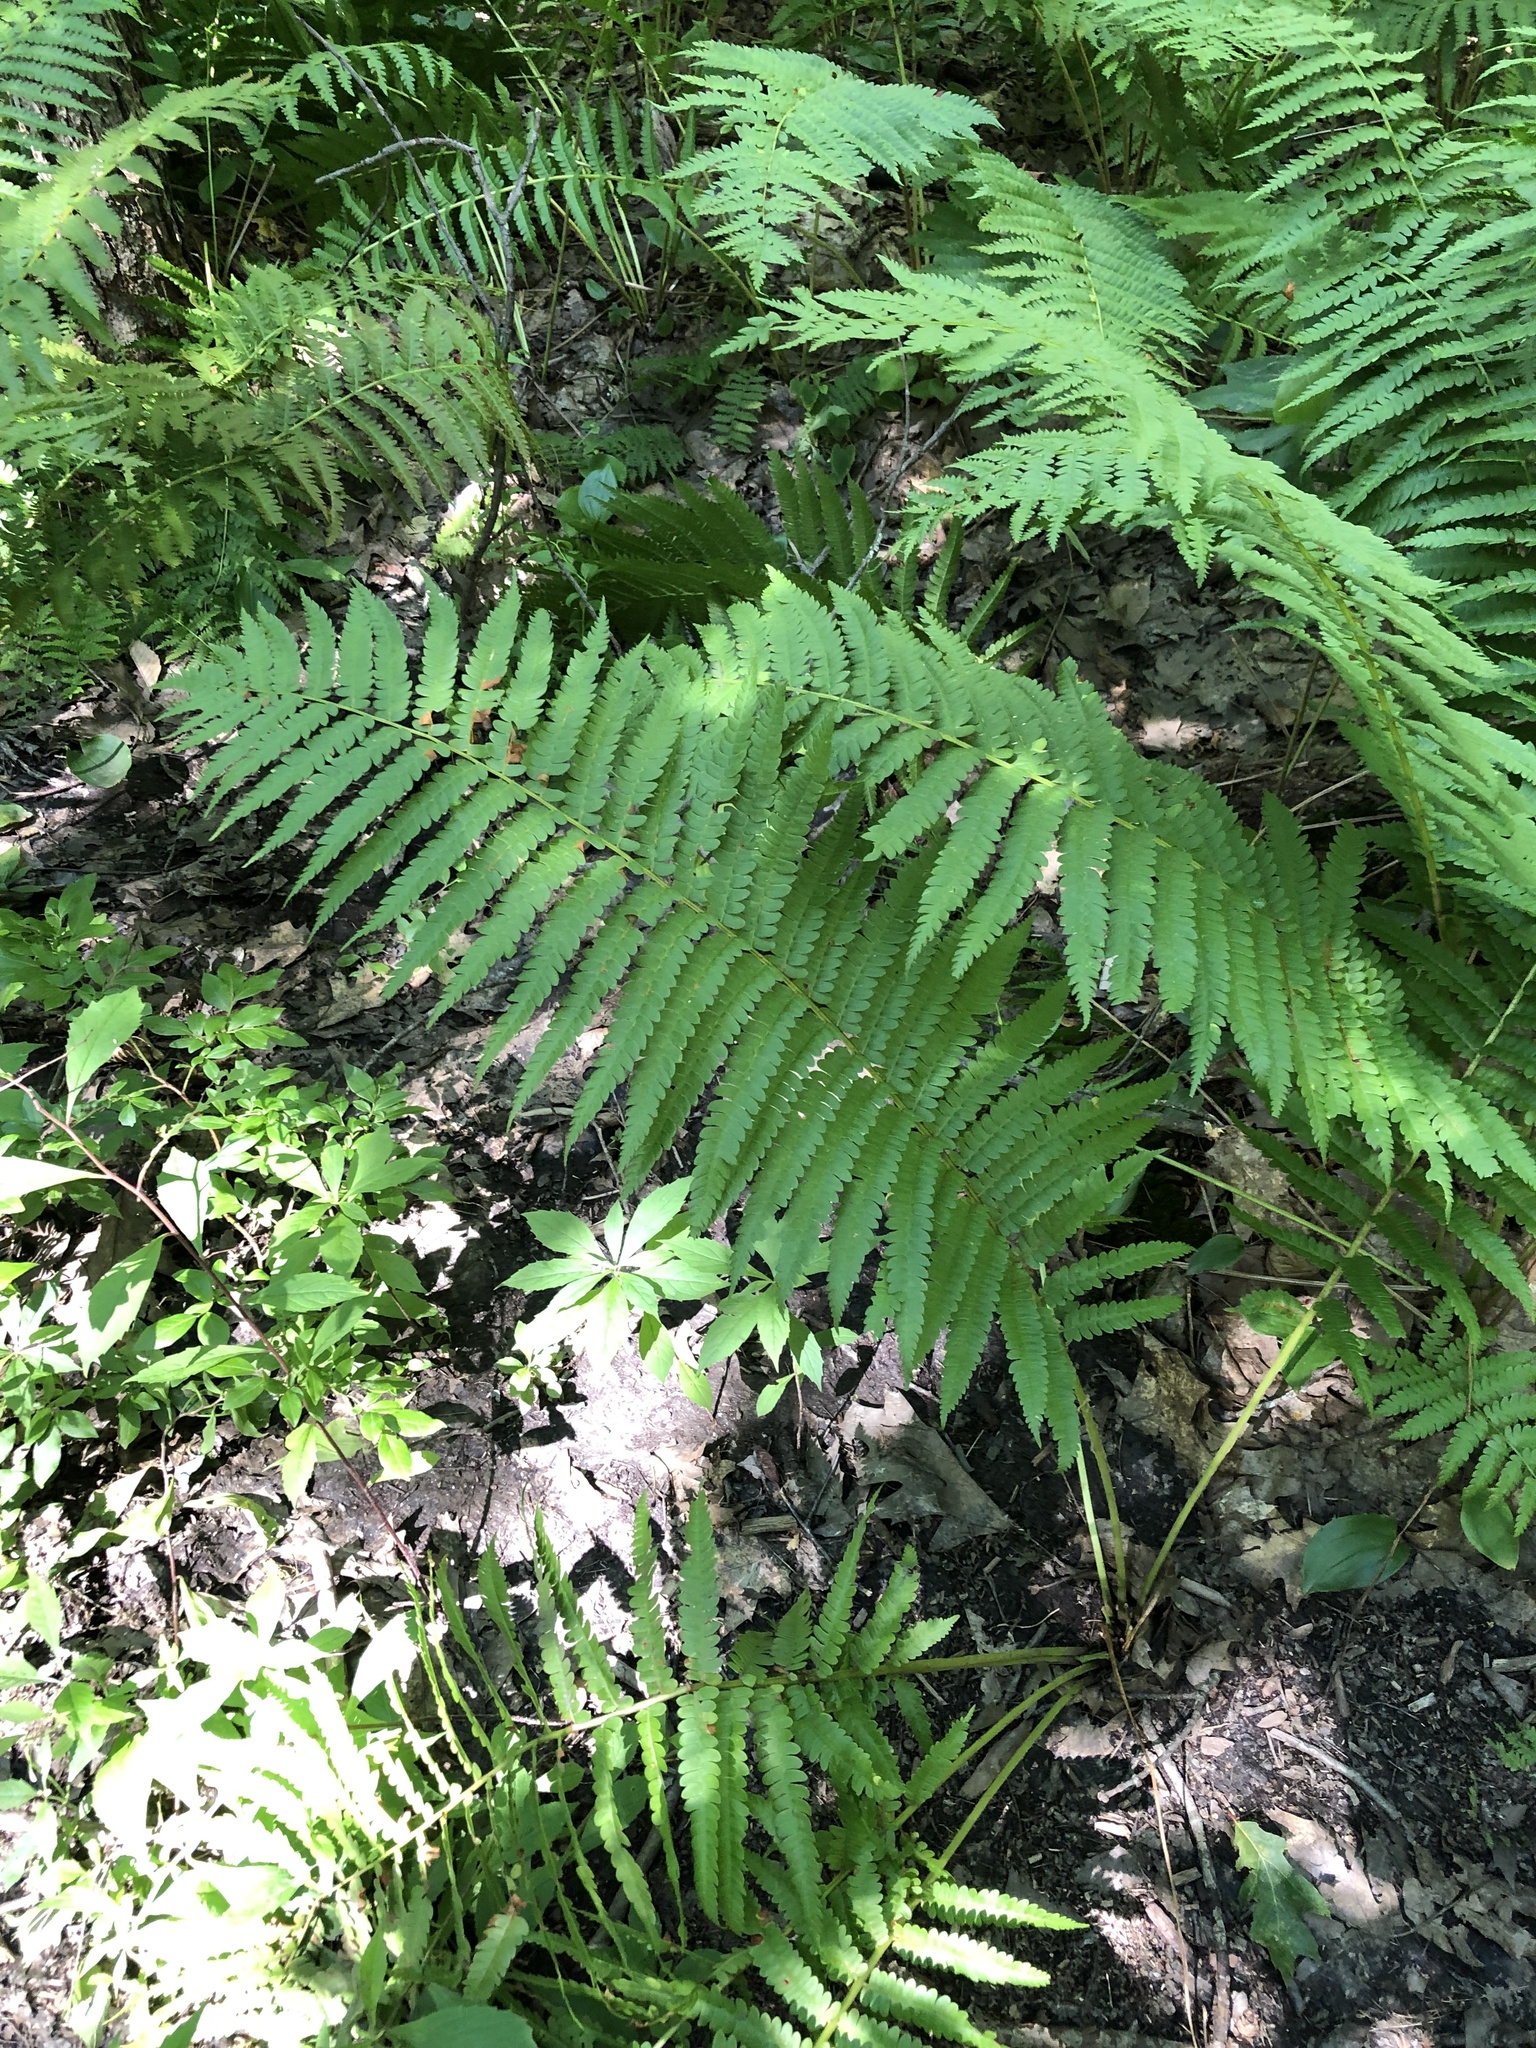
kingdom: Plantae
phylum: Tracheophyta
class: Polypodiopsida
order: Osmundales
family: Osmundaceae
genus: Osmundastrum
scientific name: Osmundastrum cinnamomeum
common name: Cinnamon fern
